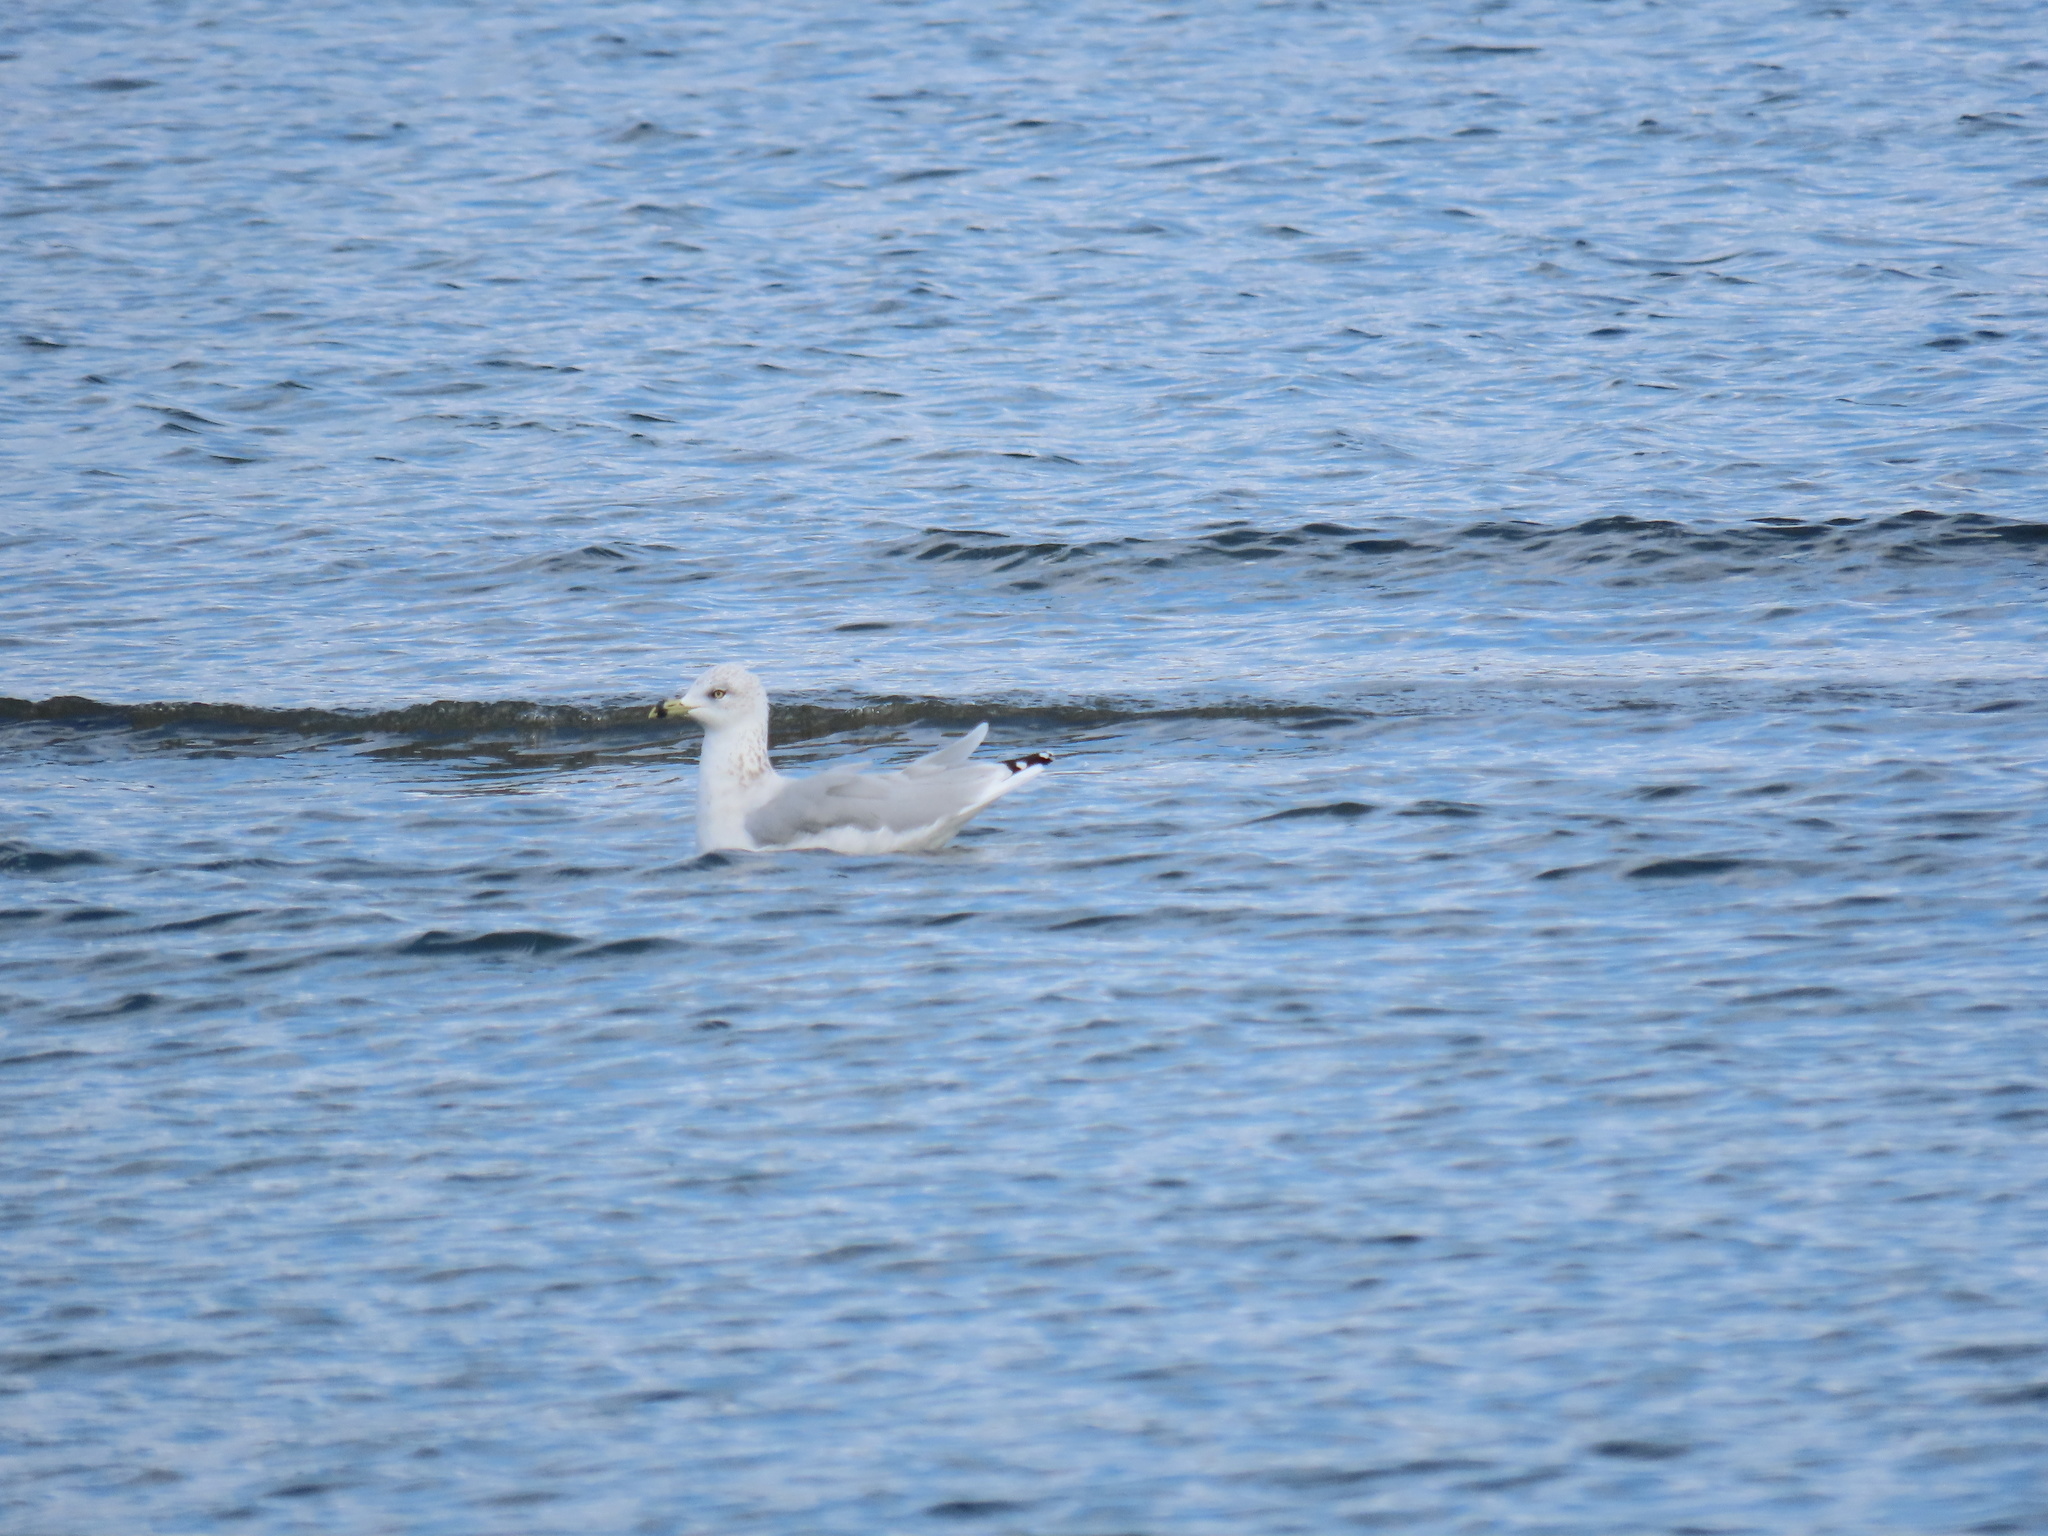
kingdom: Animalia
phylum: Chordata
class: Aves
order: Charadriiformes
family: Laridae
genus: Larus
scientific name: Larus delawarensis
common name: Ring-billed gull
